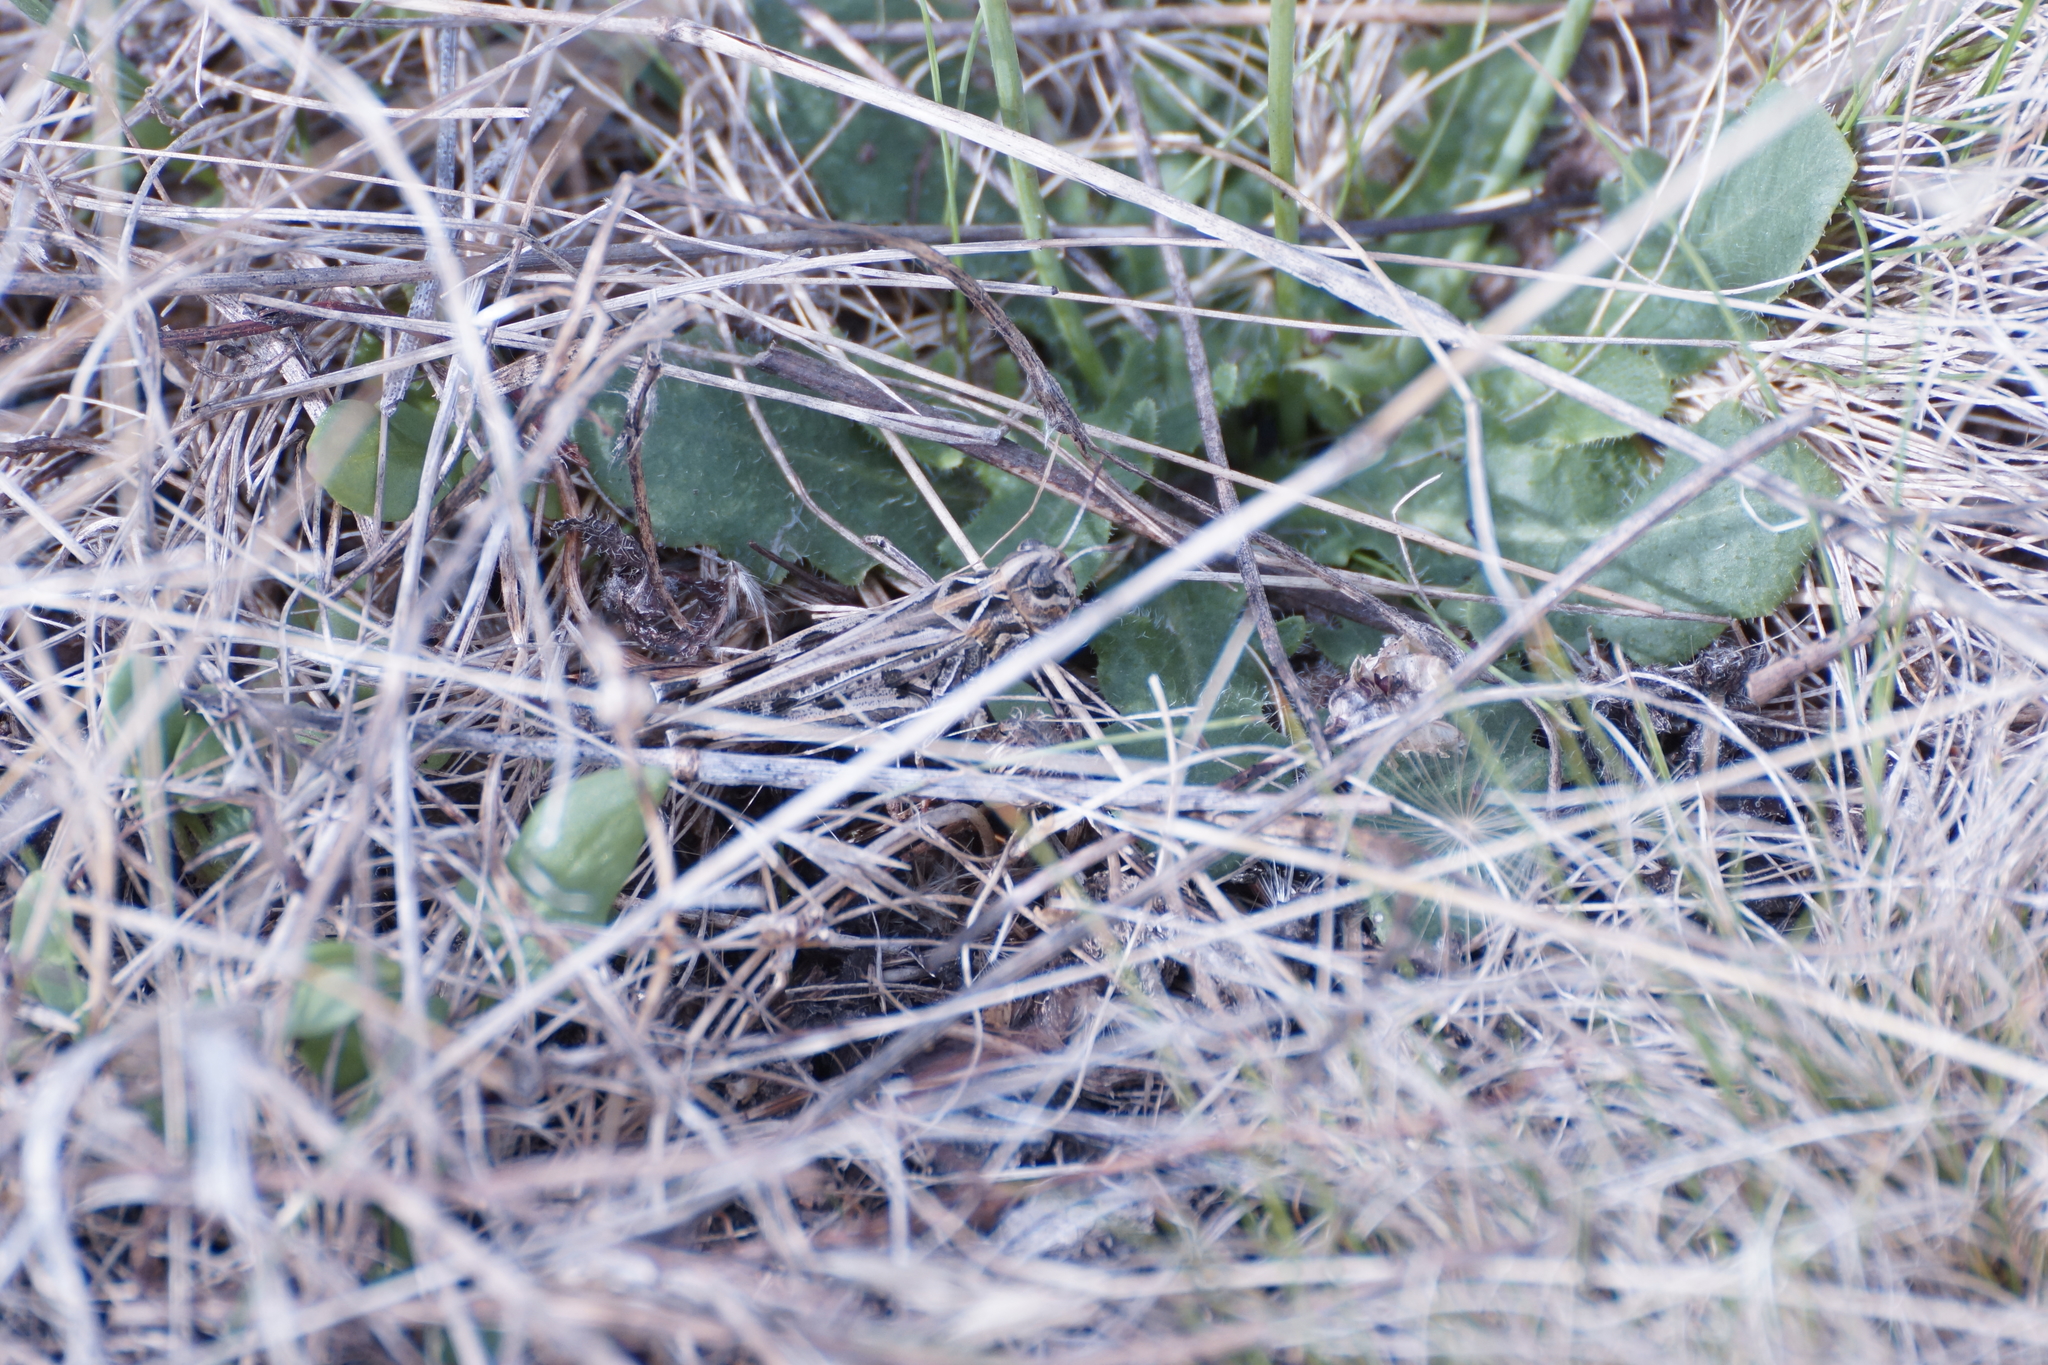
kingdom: Animalia
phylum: Arthropoda
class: Insecta
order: Orthoptera
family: Acrididae
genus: Austroicetes
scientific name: Austroicetes vulgaris
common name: Southeastern austroicetes
